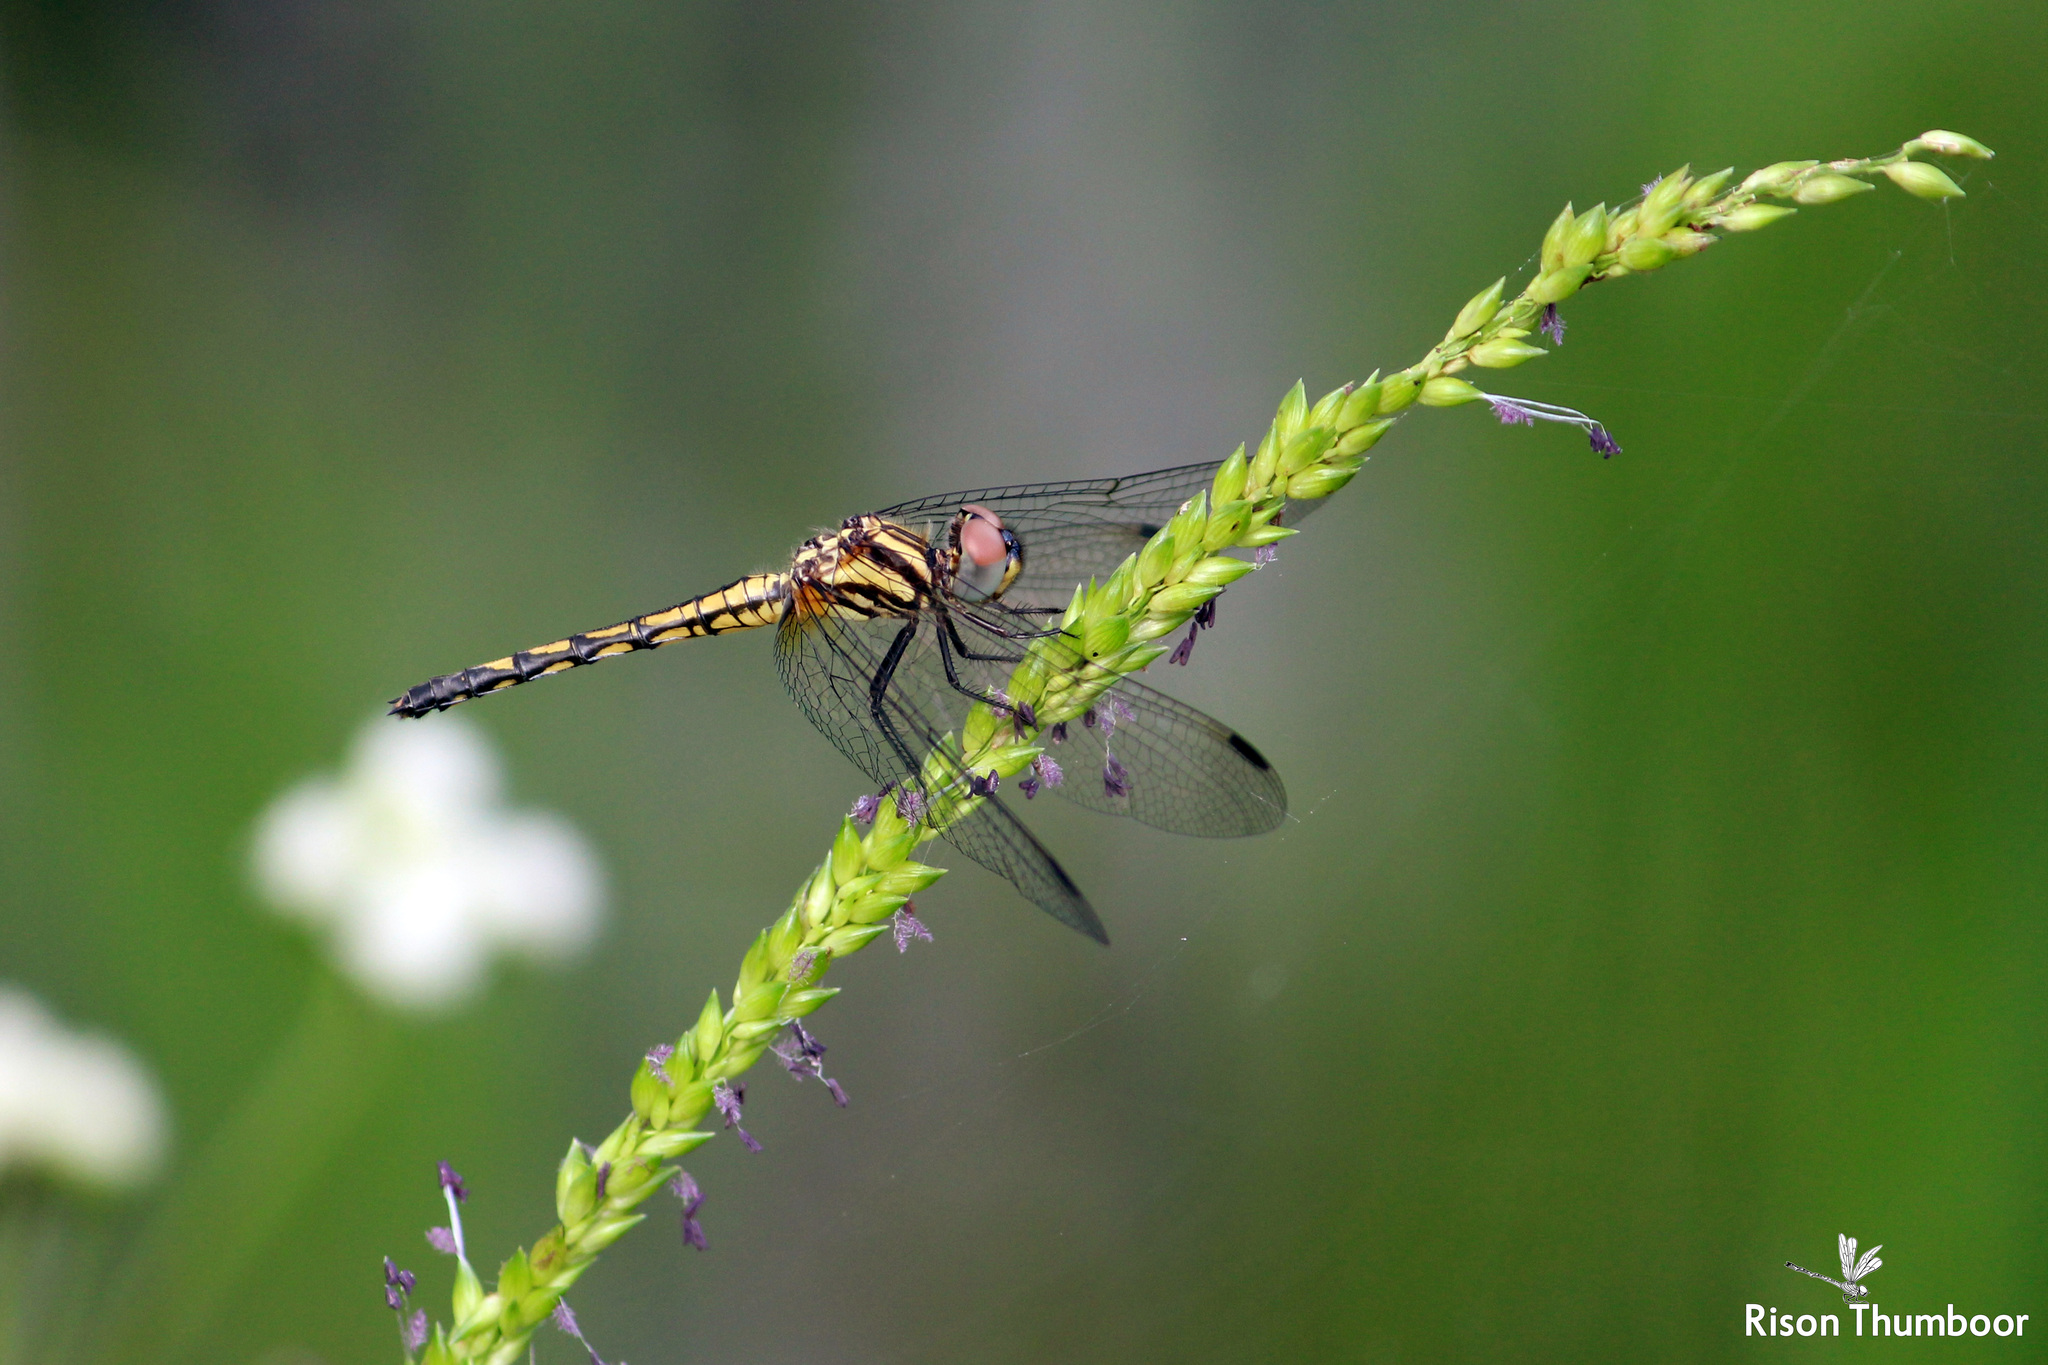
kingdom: Animalia
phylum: Arthropoda
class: Insecta
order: Odonata
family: Libellulidae
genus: Trithemis
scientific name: Trithemis festiva
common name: Indigo dropwing
